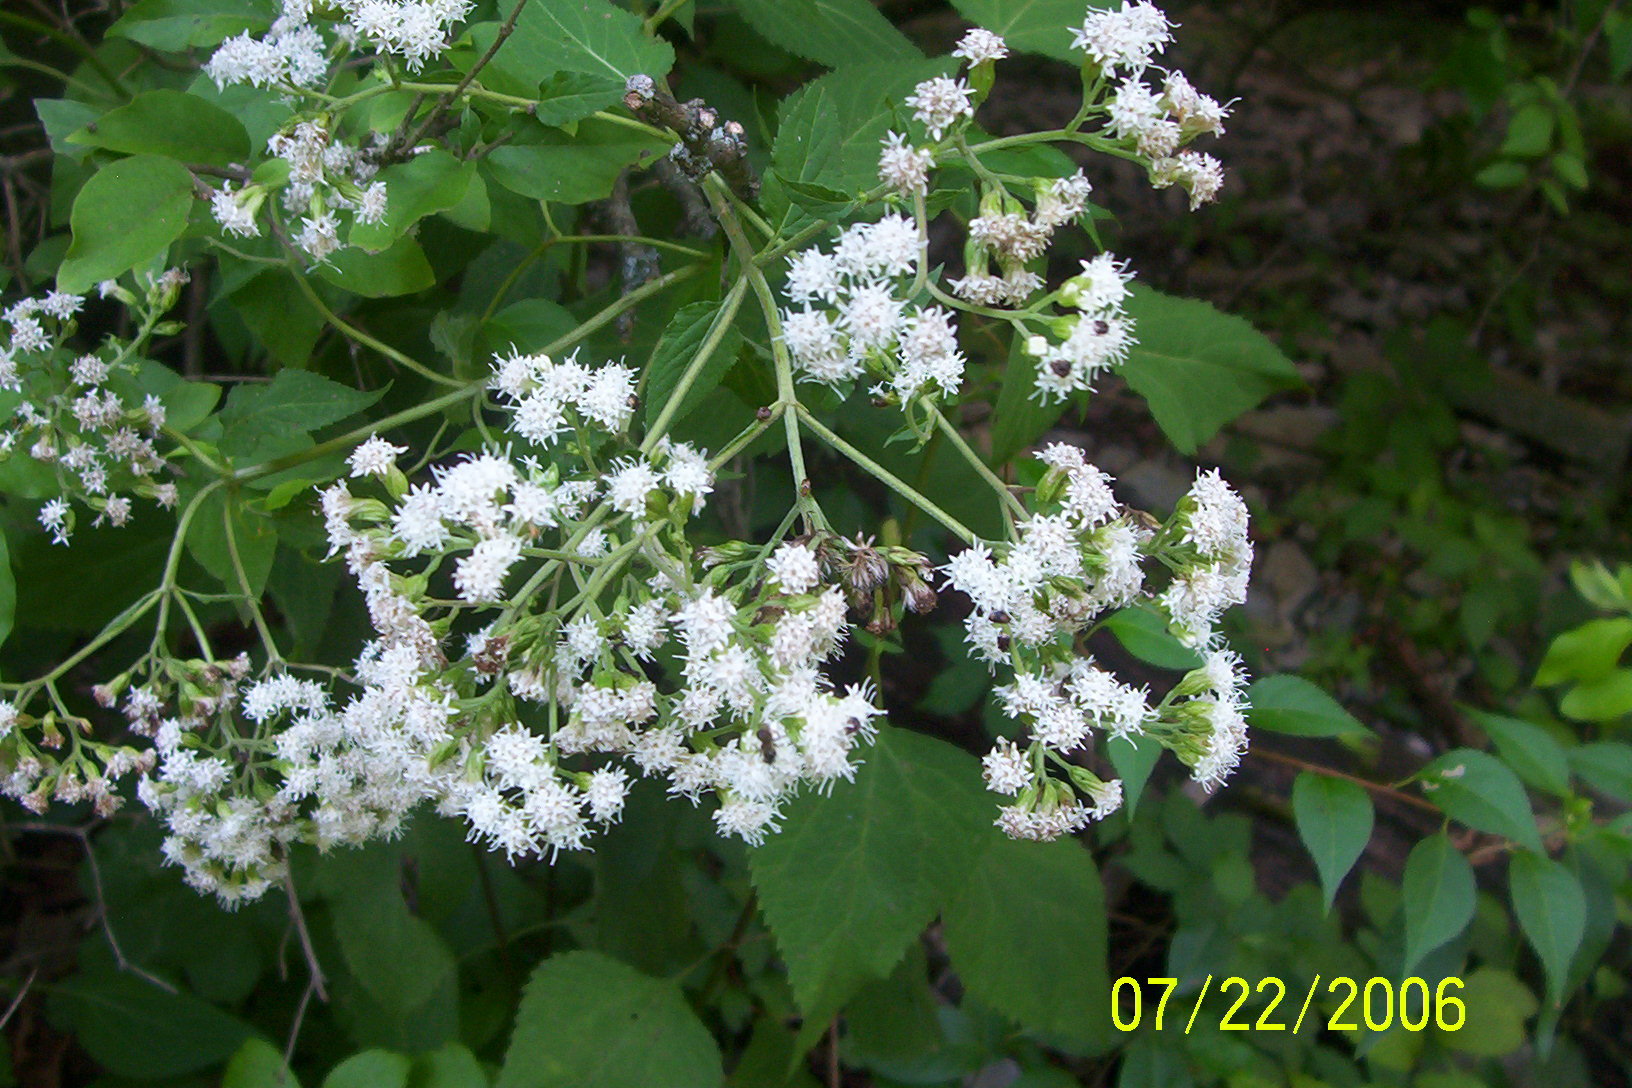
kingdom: Plantae
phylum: Tracheophyta
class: Magnoliopsida
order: Asterales
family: Asteraceae
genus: Ageratina
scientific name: Ageratina altissima
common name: White snakeroot
